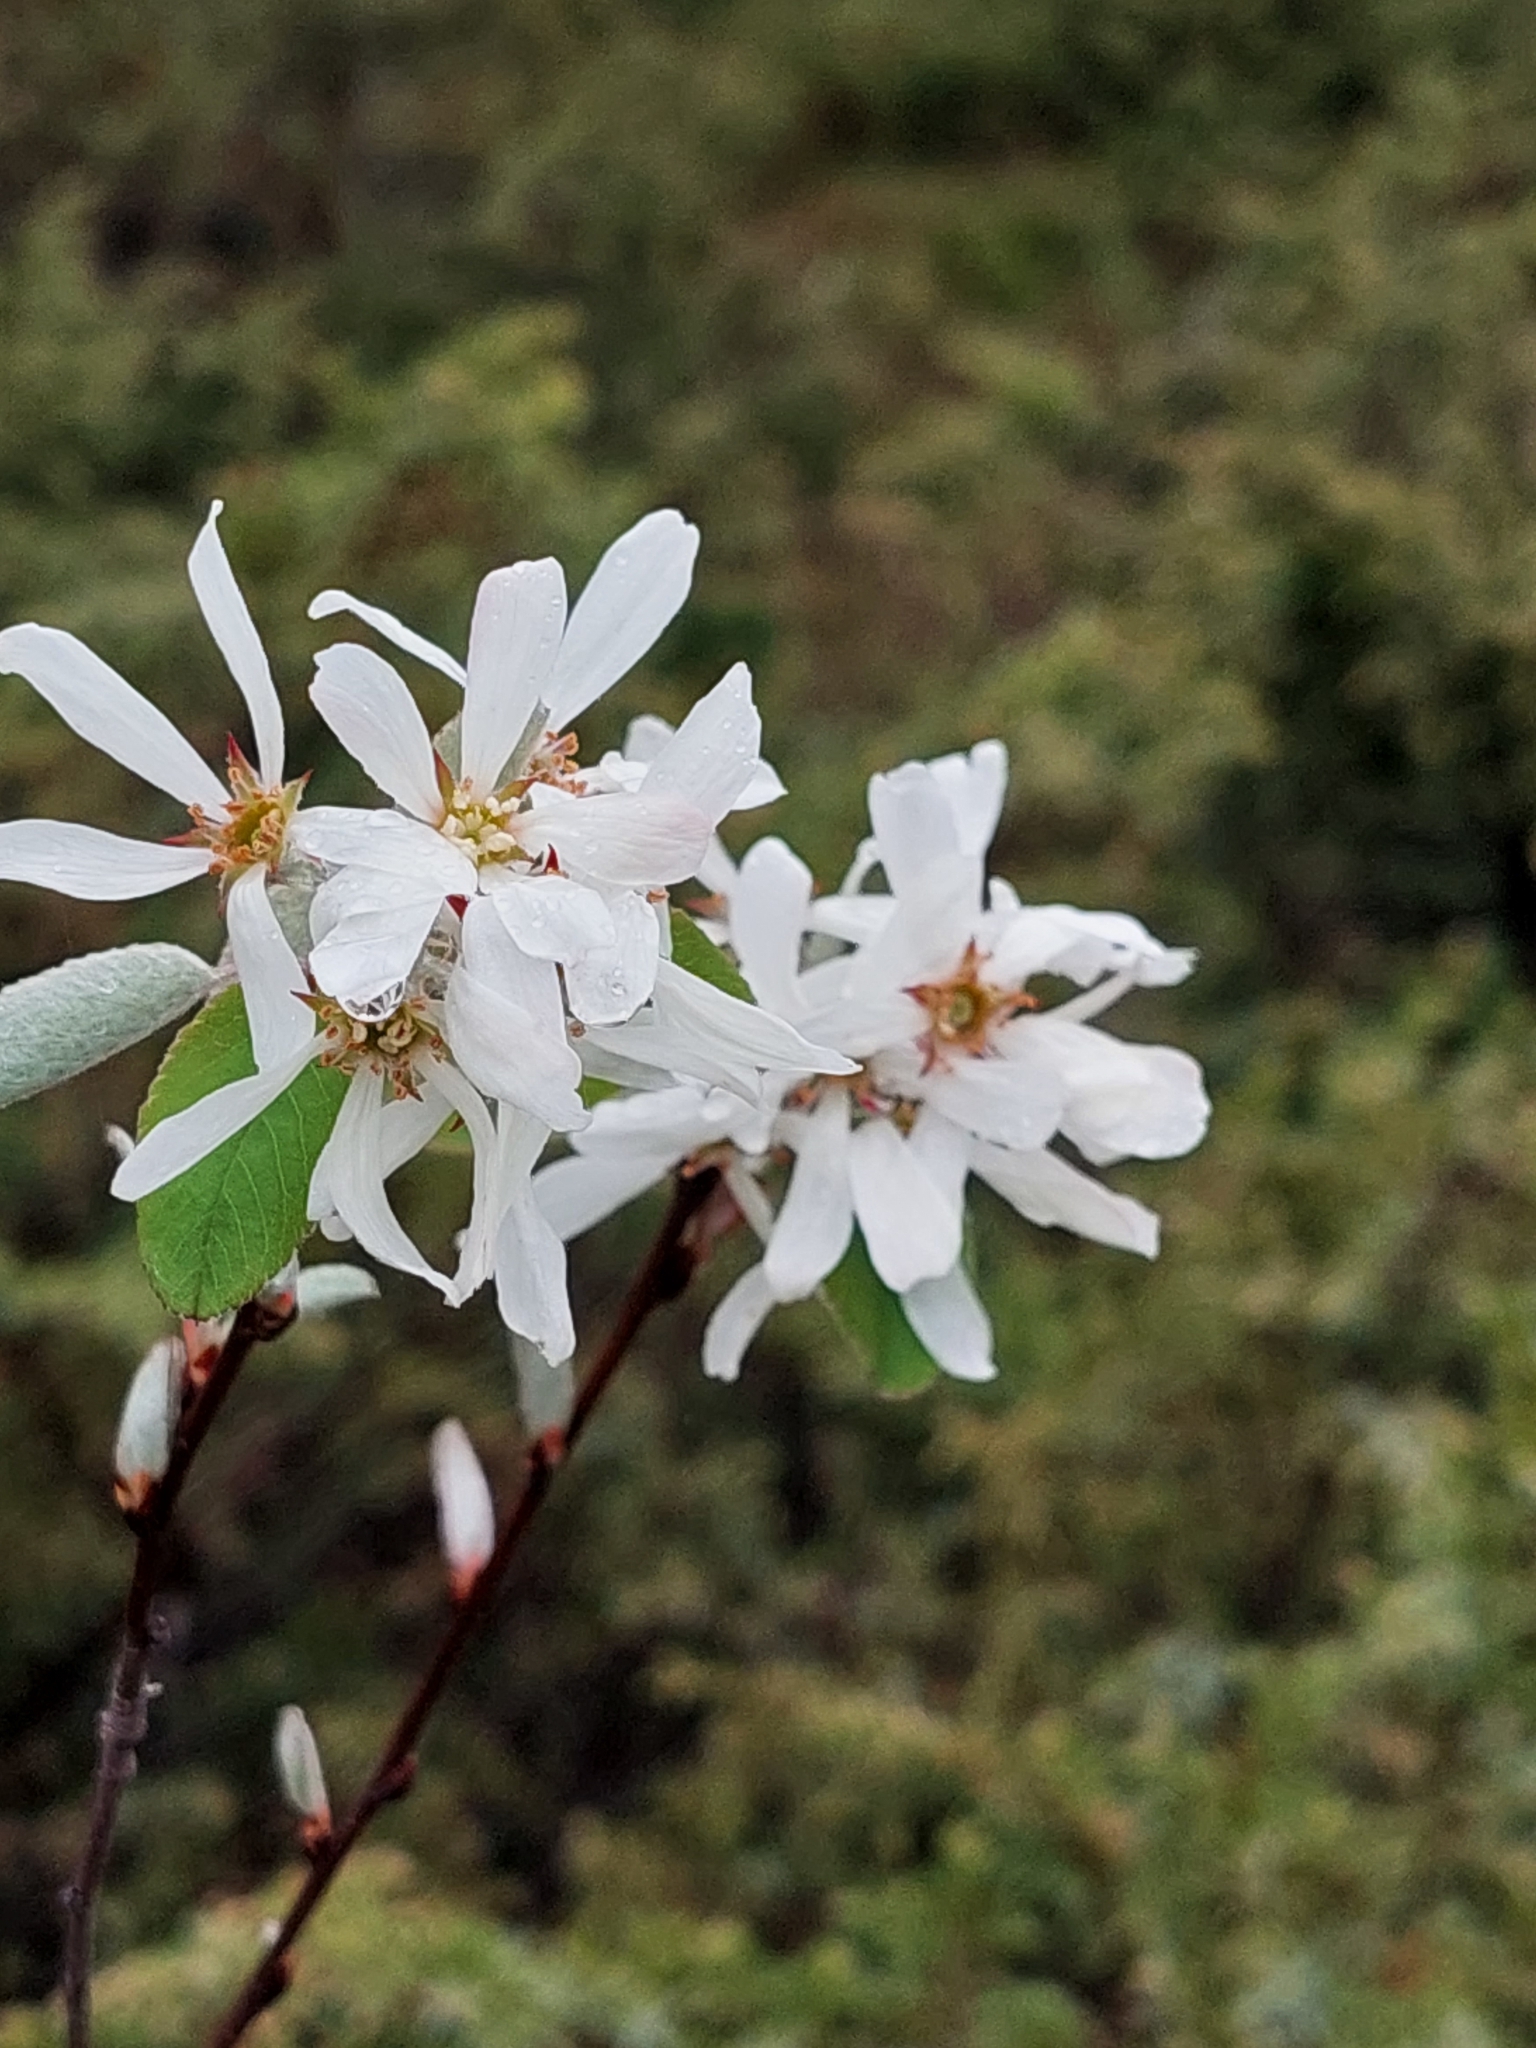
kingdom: Plantae
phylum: Tracheophyta
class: Magnoliopsida
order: Rosales
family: Rosaceae
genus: Amelanchier
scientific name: Amelanchier ovalis
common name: Serviceberry
